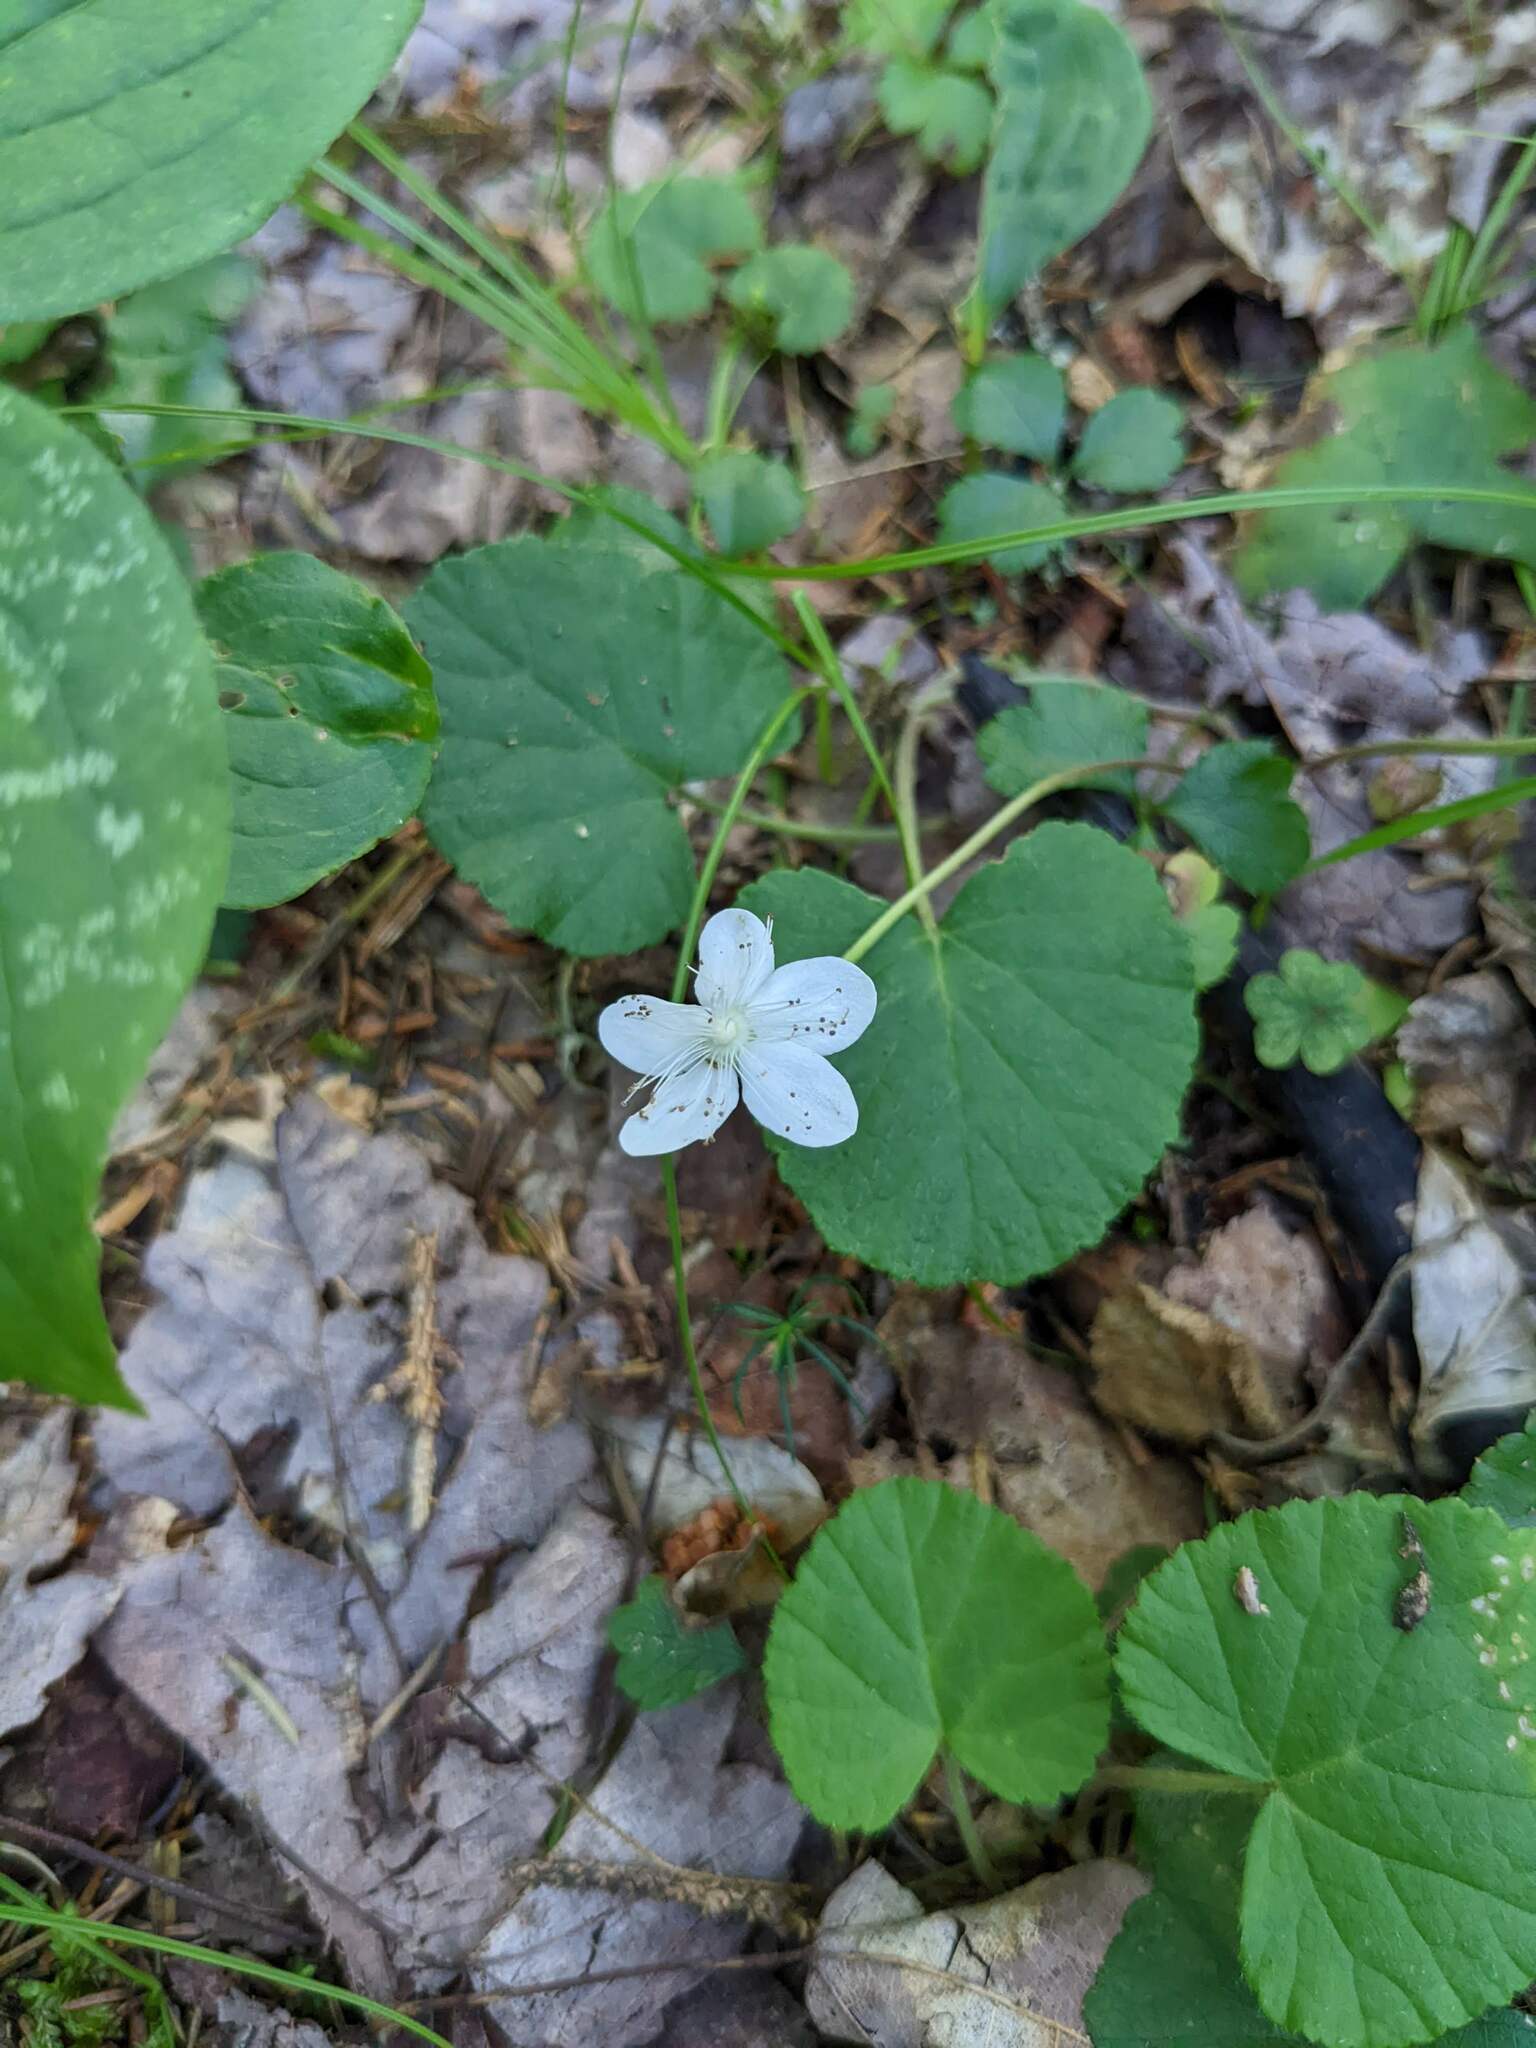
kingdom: Plantae
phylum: Tracheophyta
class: Magnoliopsida
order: Rosales
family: Rosaceae
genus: Dalibarda
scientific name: Dalibarda repens
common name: Dewdrop
